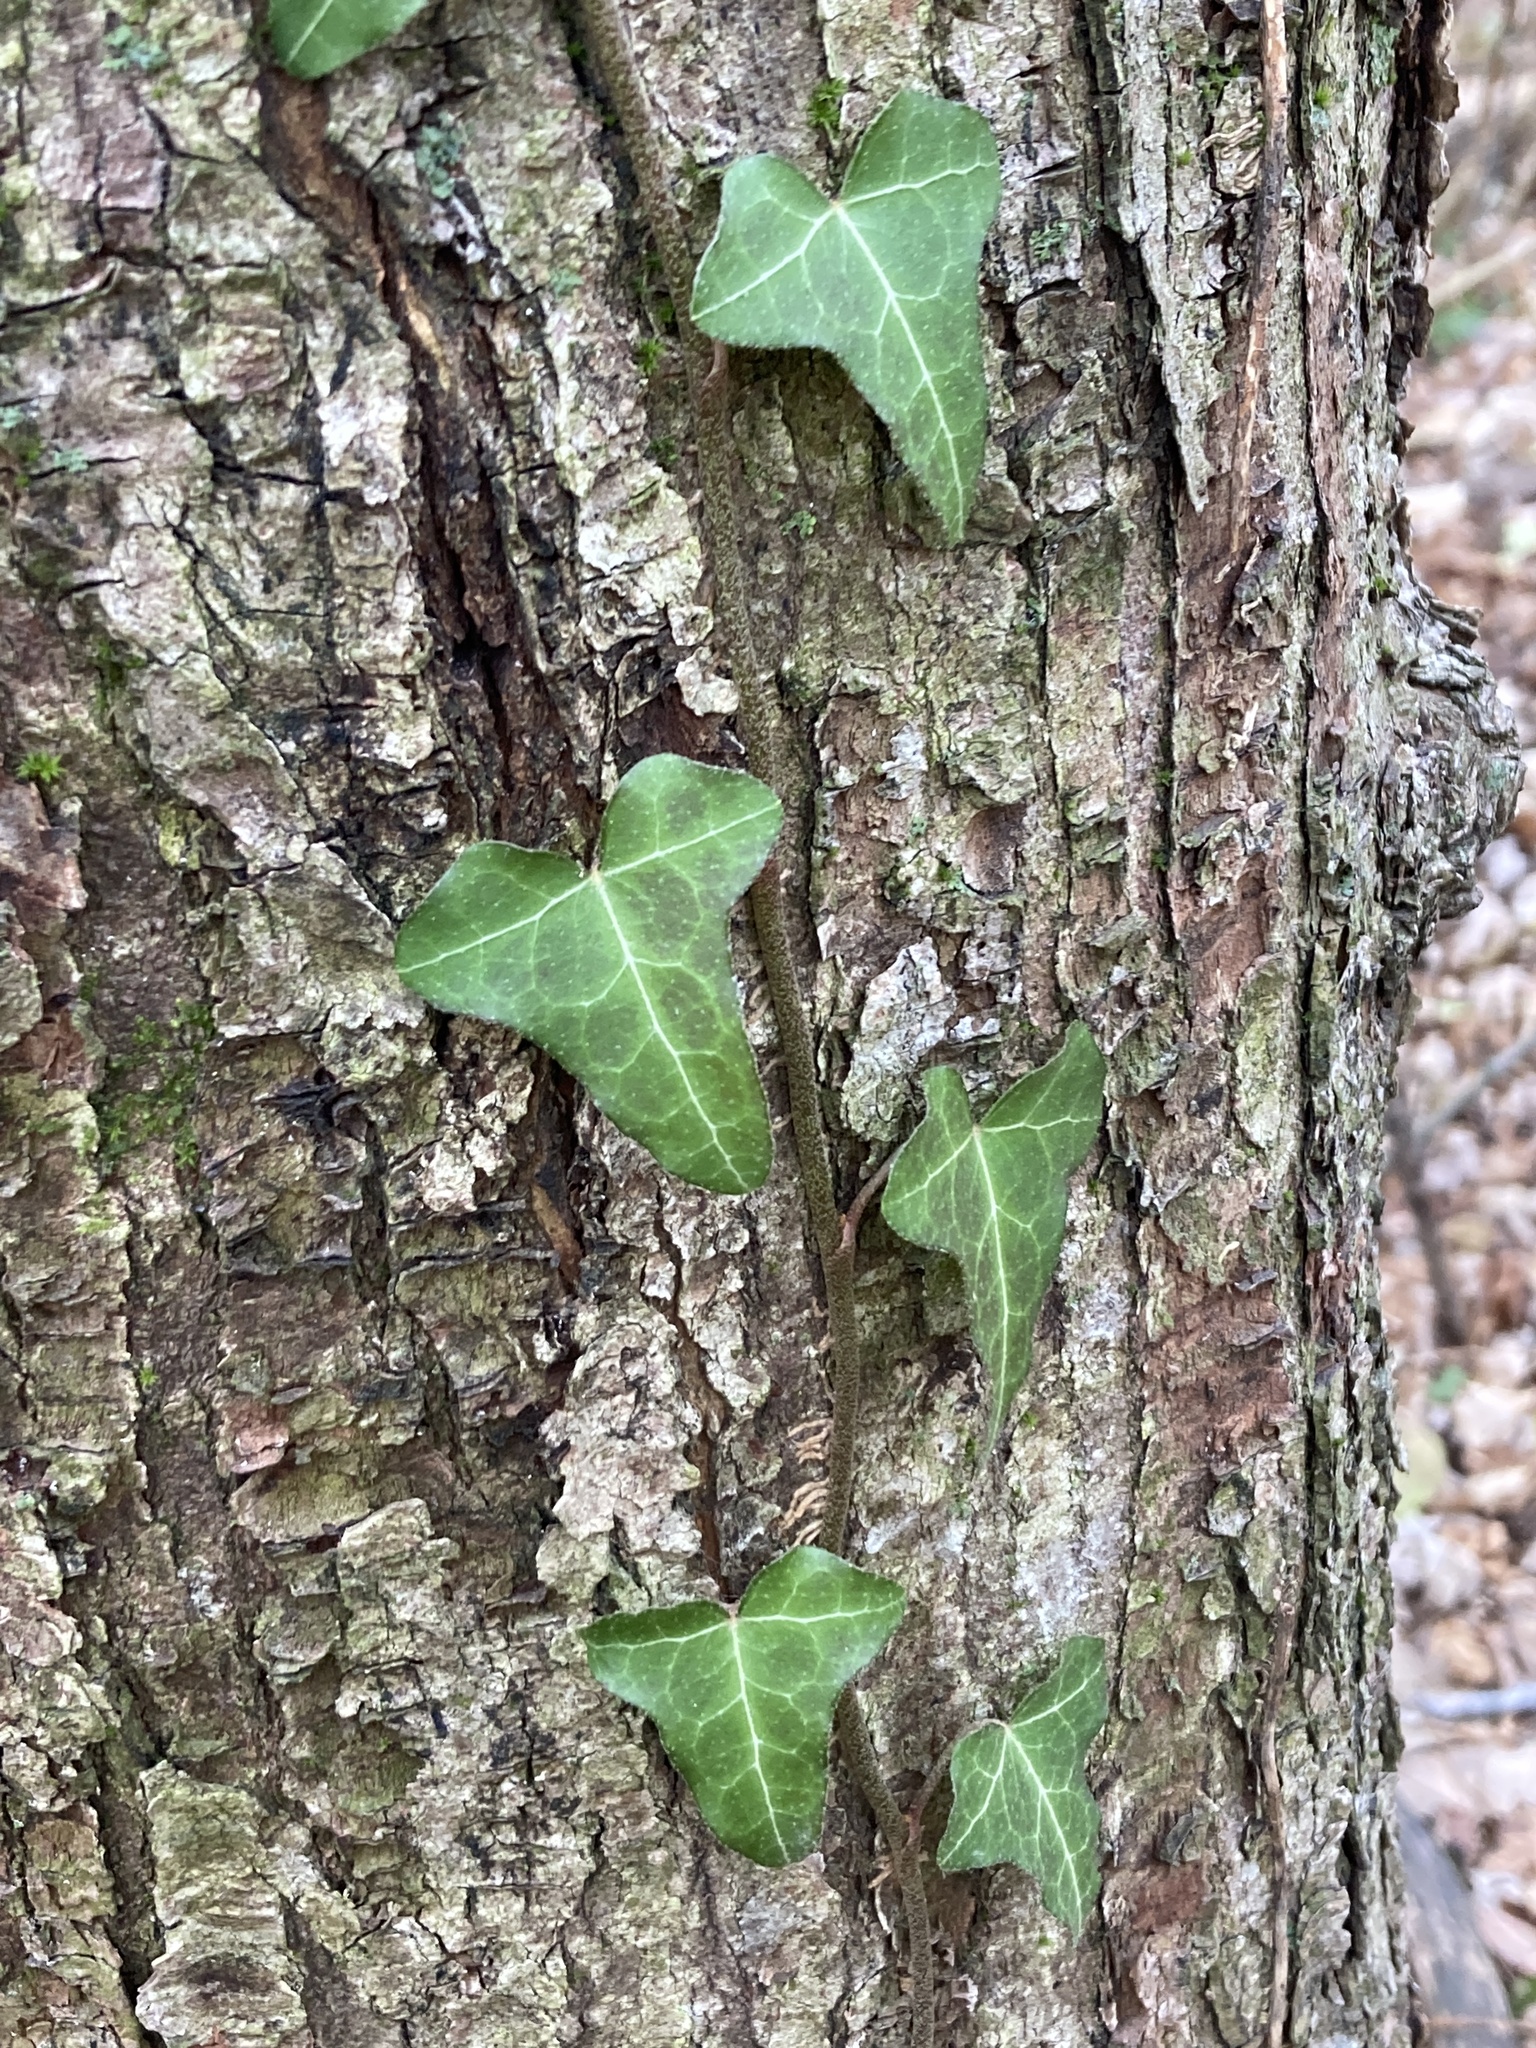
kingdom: Plantae
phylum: Tracheophyta
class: Magnoliopsida
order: Apiales
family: Araliaceae
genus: Hedera
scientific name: Hedera helix
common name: Ivy
